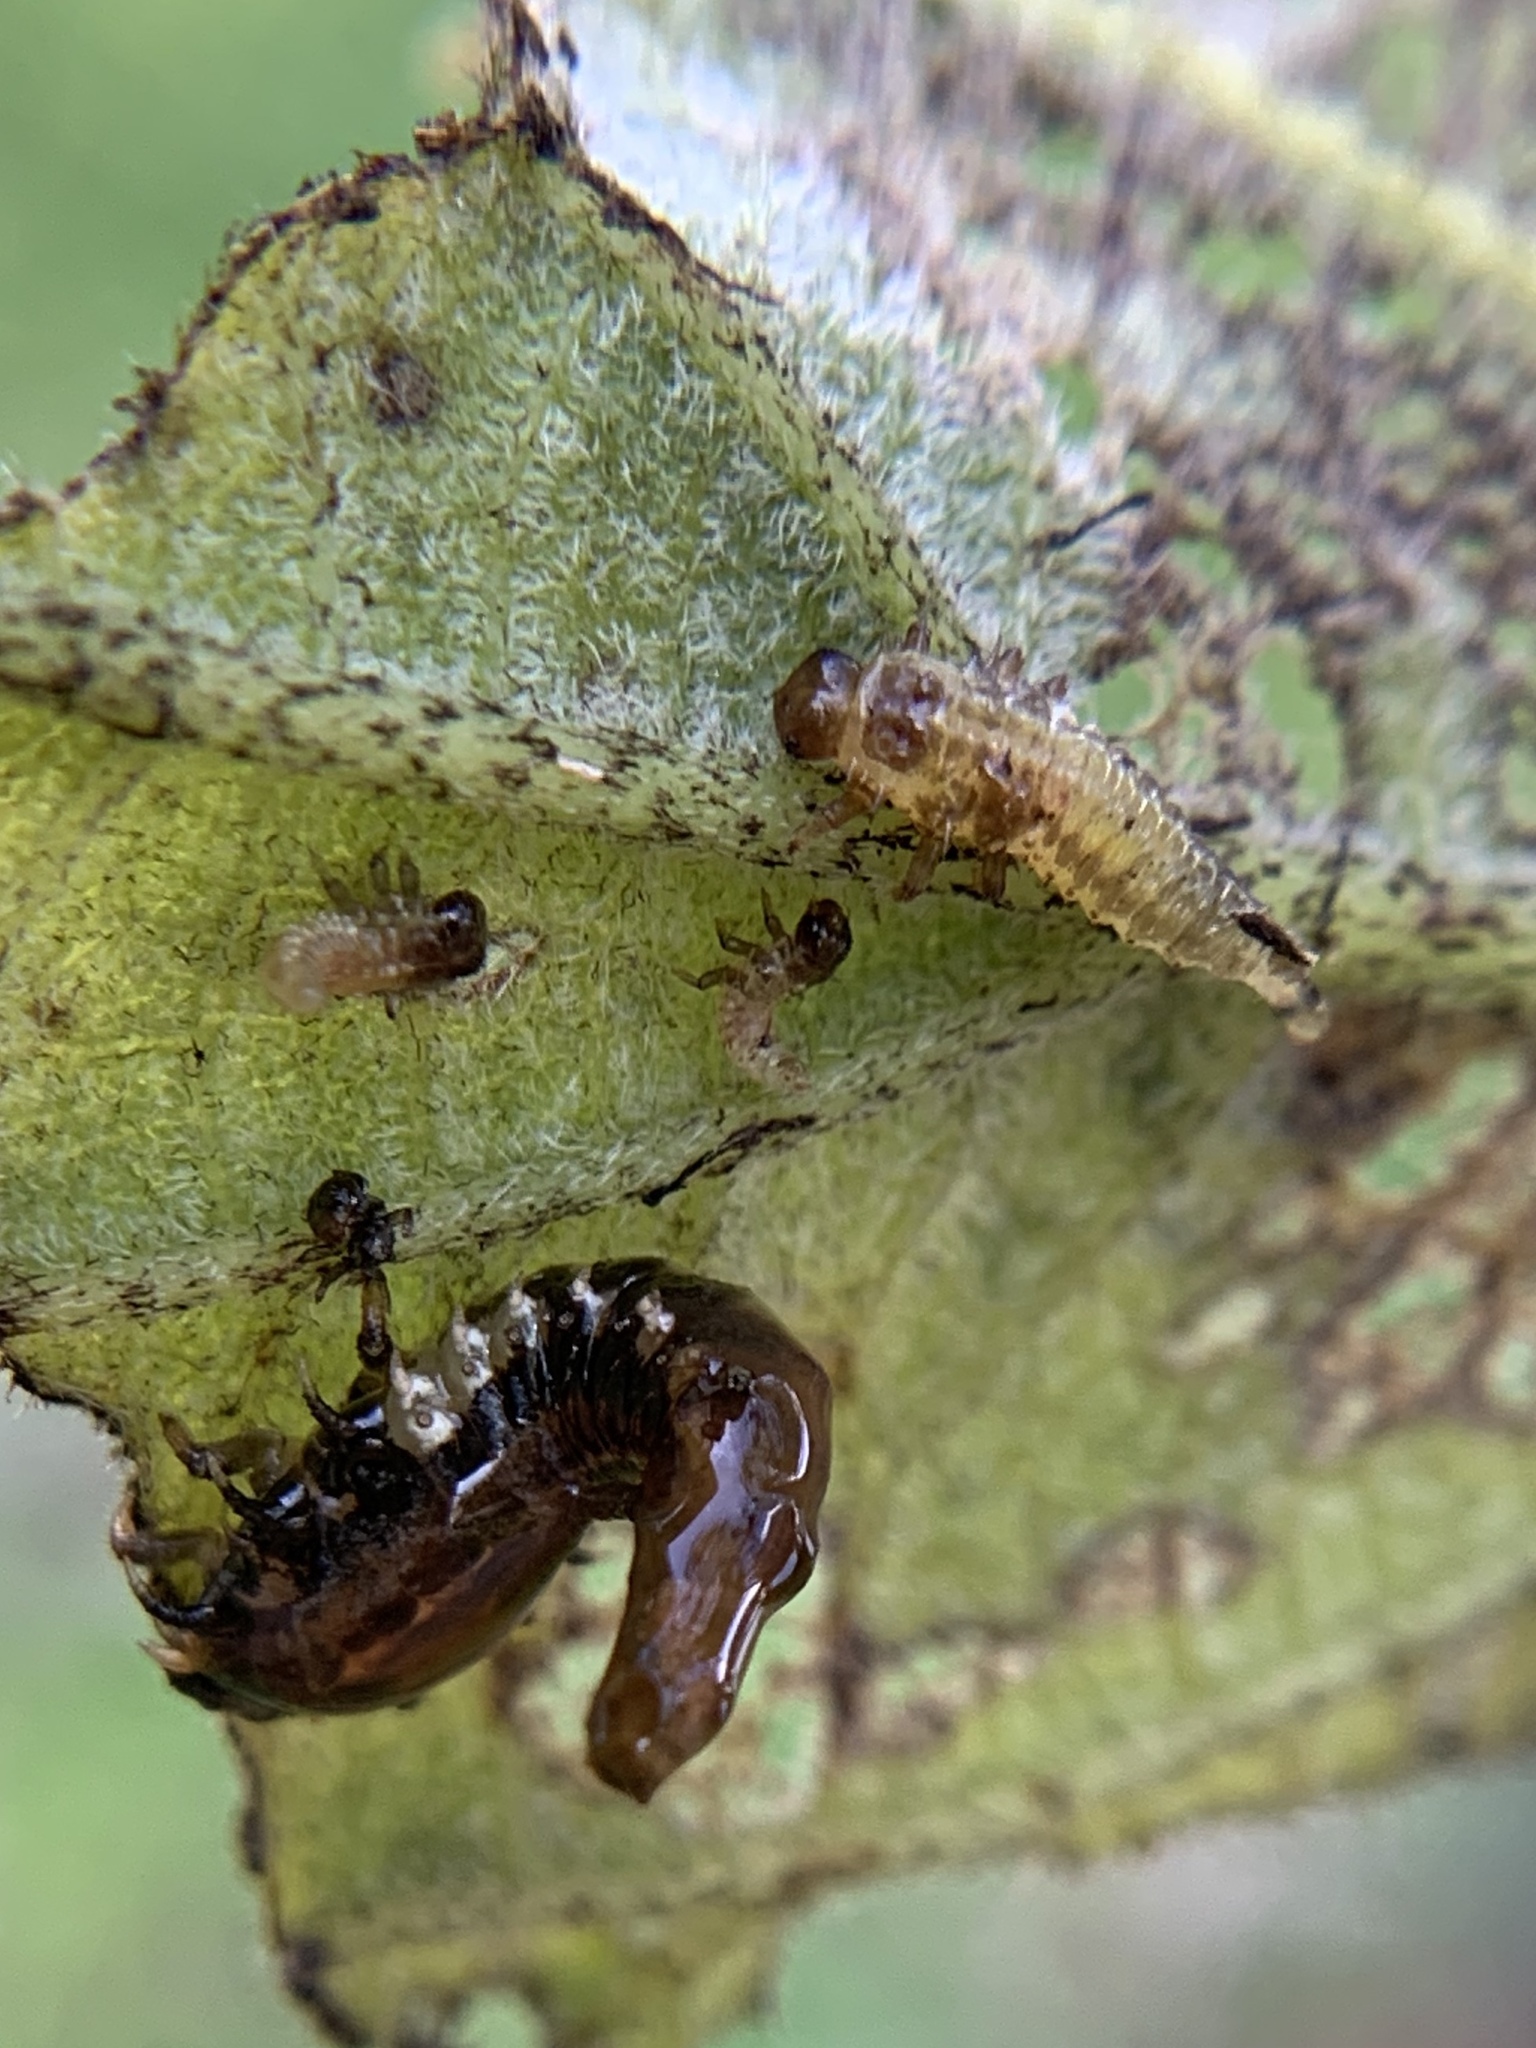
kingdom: Animalia
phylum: Arthropoda
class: Insecta
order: Coleoptera
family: Chrysomelidae
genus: Eurypepla
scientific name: Eurypepla calochroma
